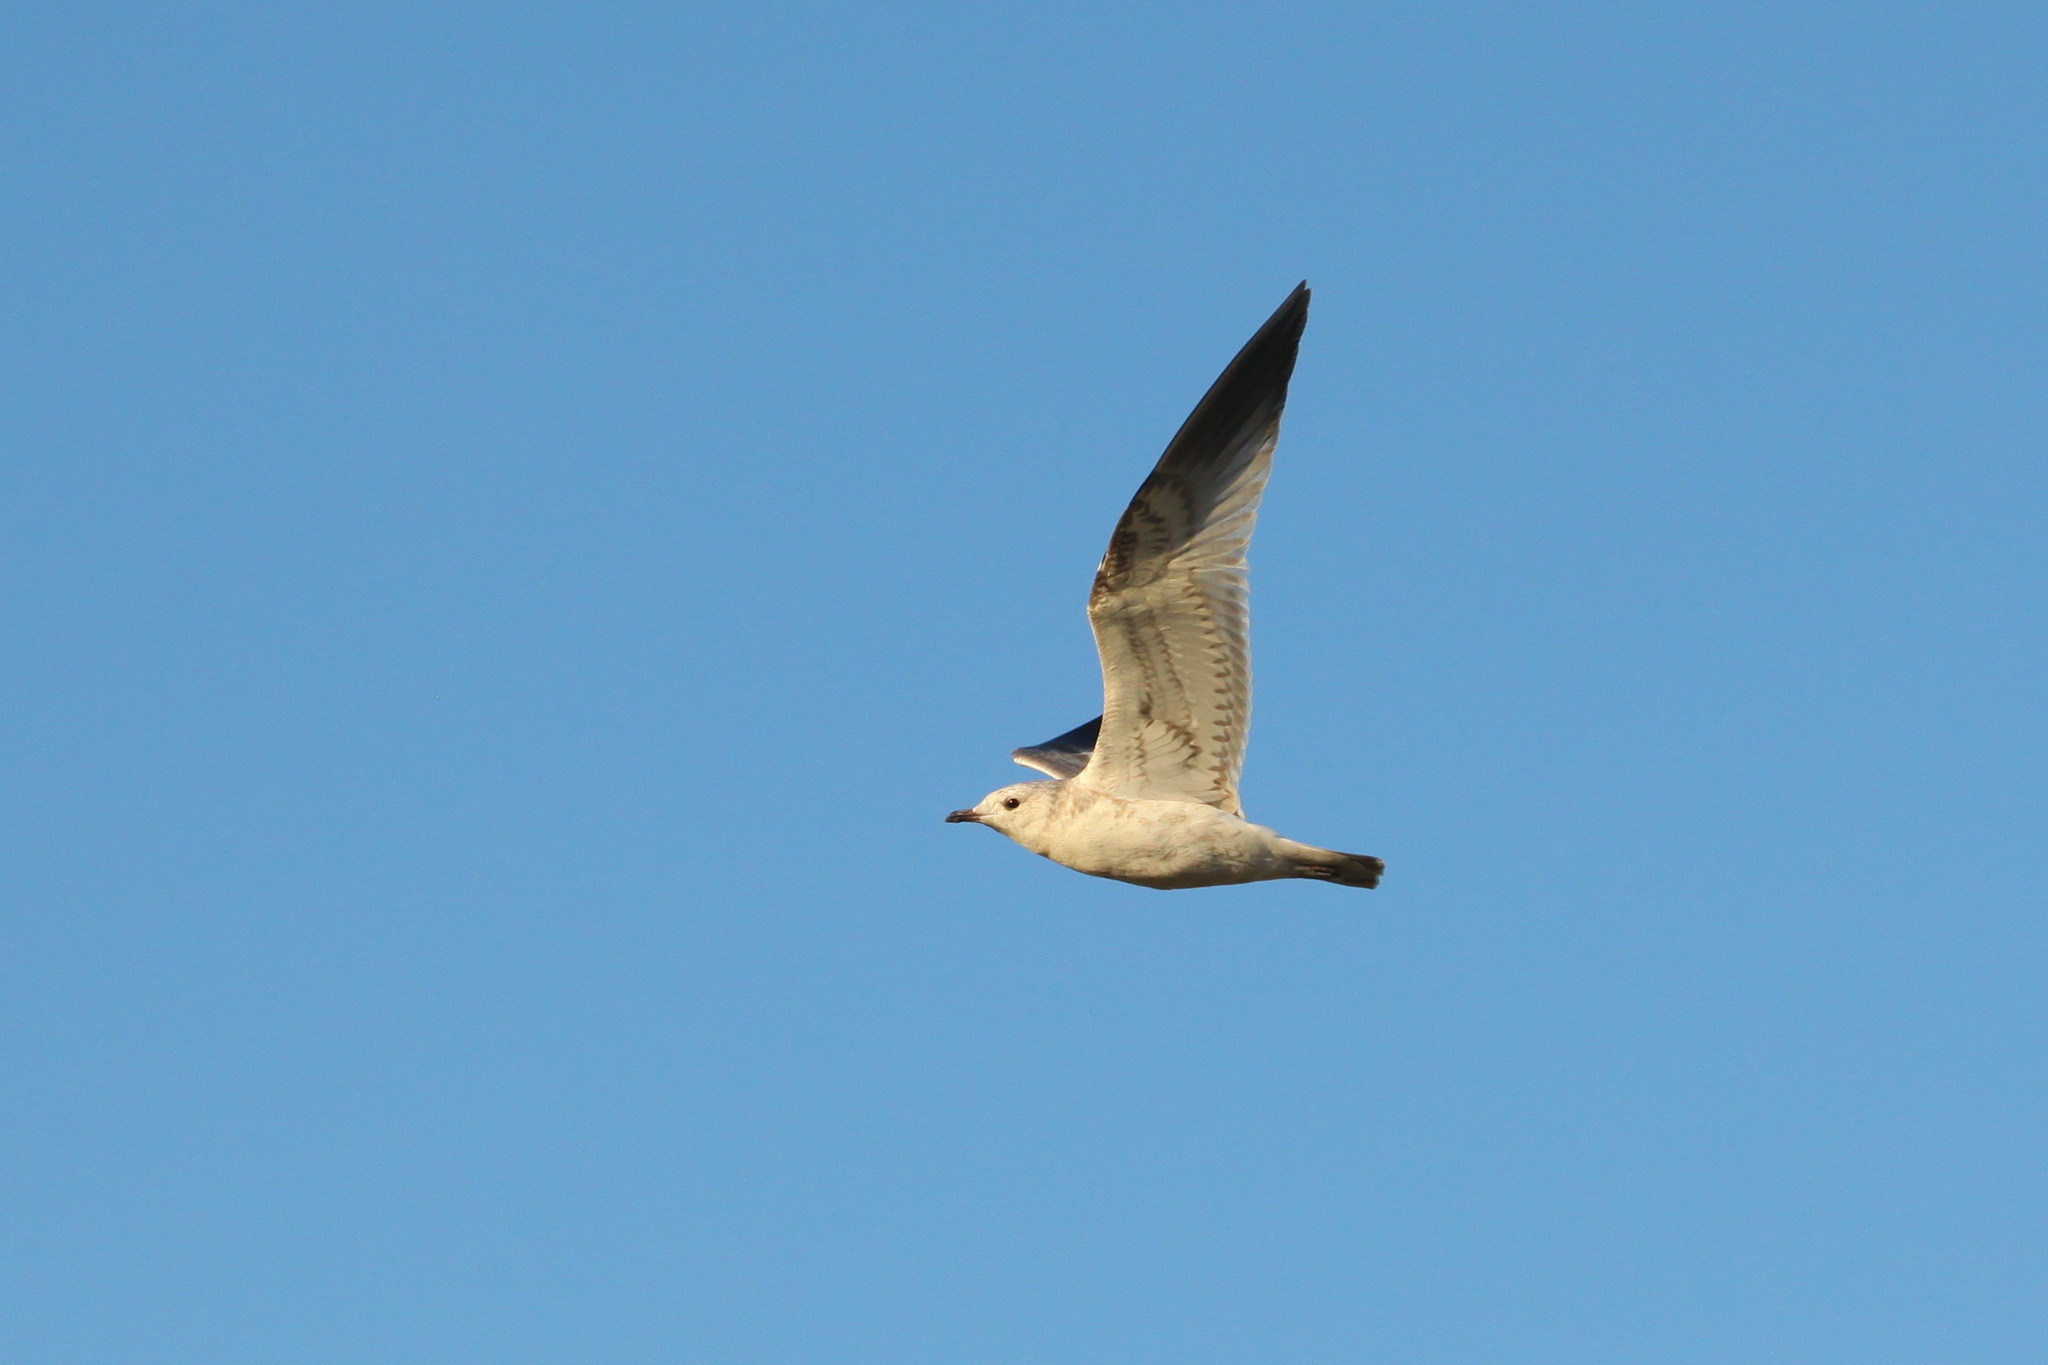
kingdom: Animalia
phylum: Chordata
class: Aves
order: Charadriiformes
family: Laridae
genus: Larus
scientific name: Larus canus
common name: Mew gull
